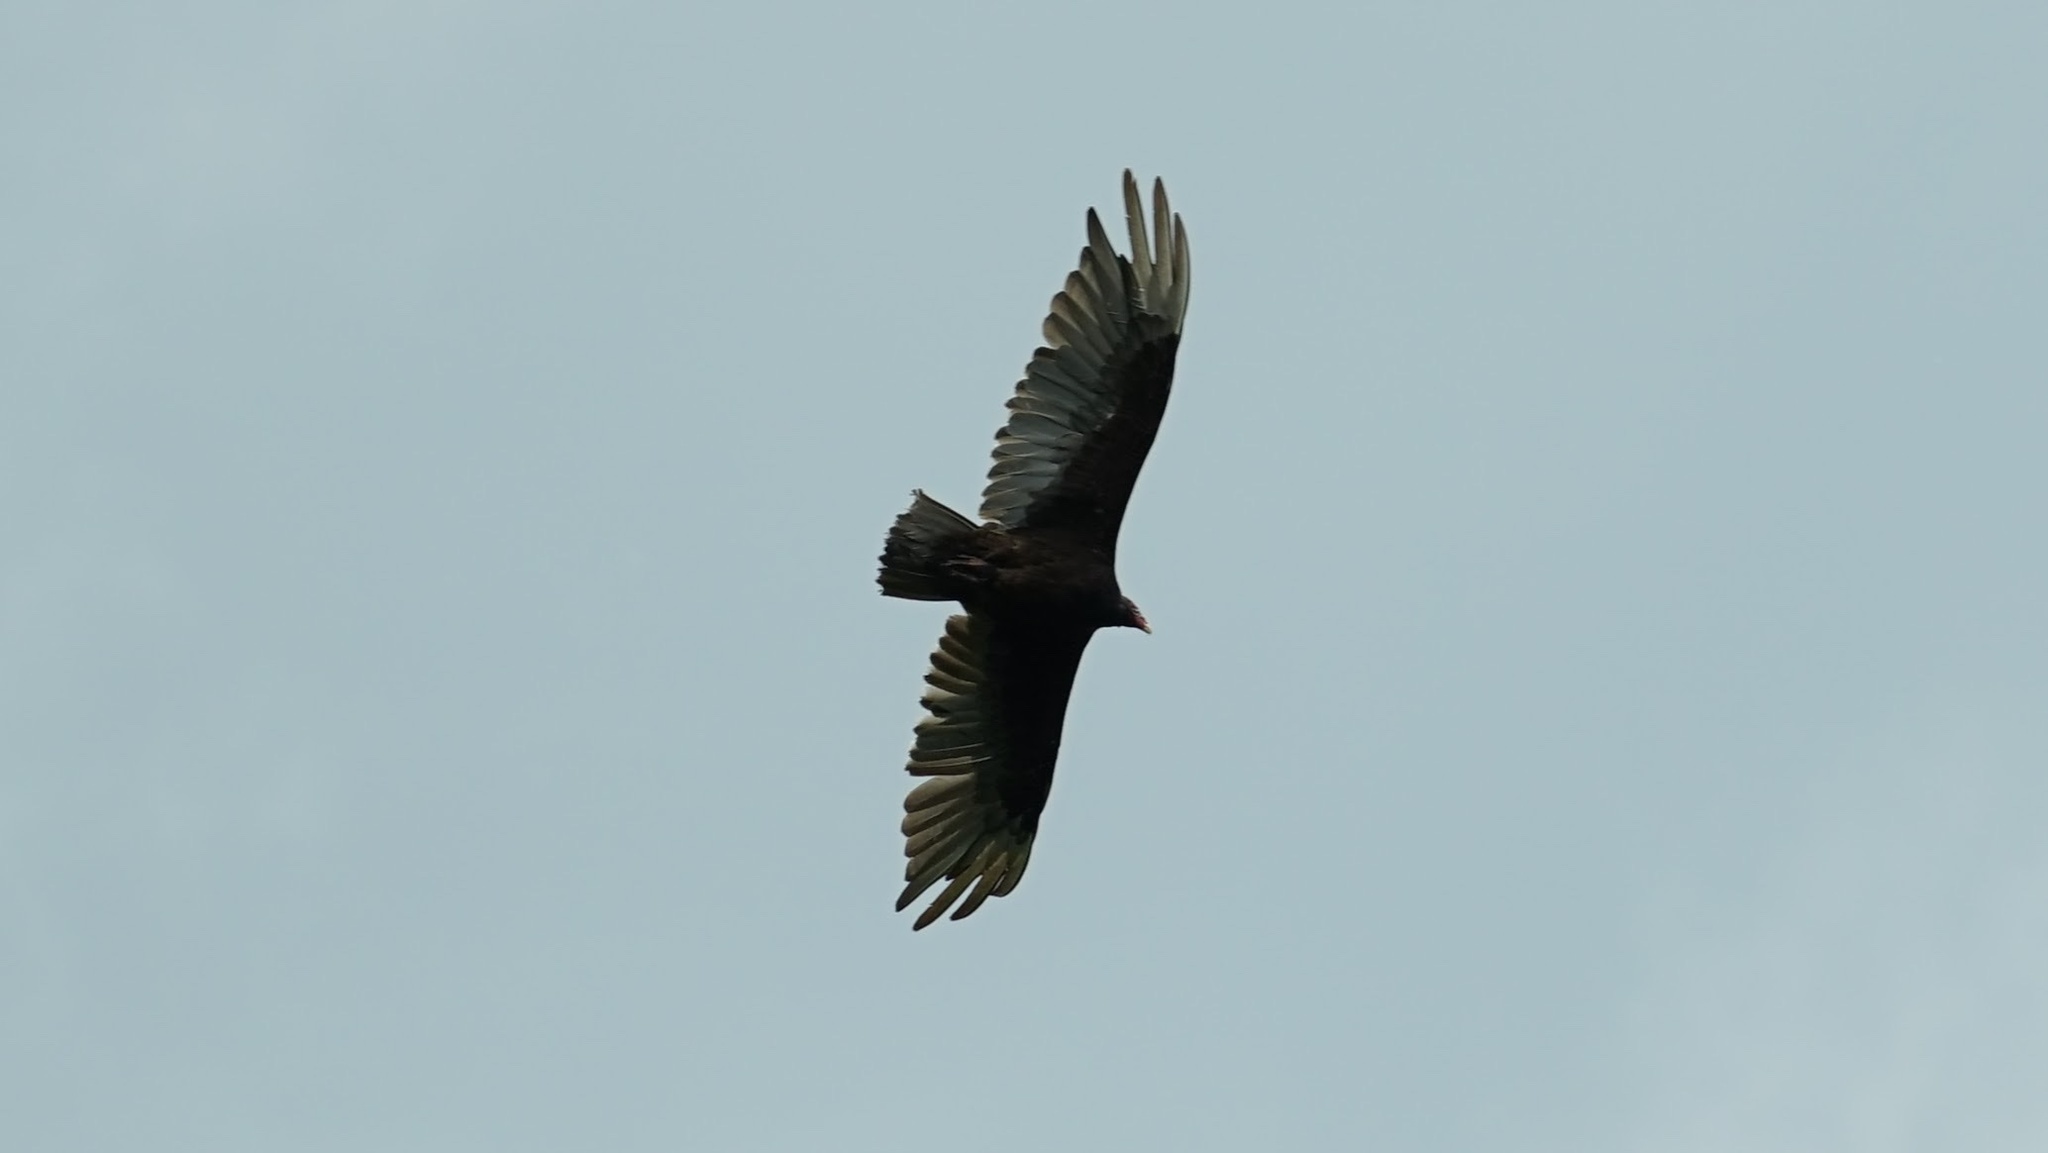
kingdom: Animalia
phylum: Chordata
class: Aves
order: Accipitriformes
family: Cathartidae
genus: Cathartes
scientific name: Cathartes aura
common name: Turkey vulture
